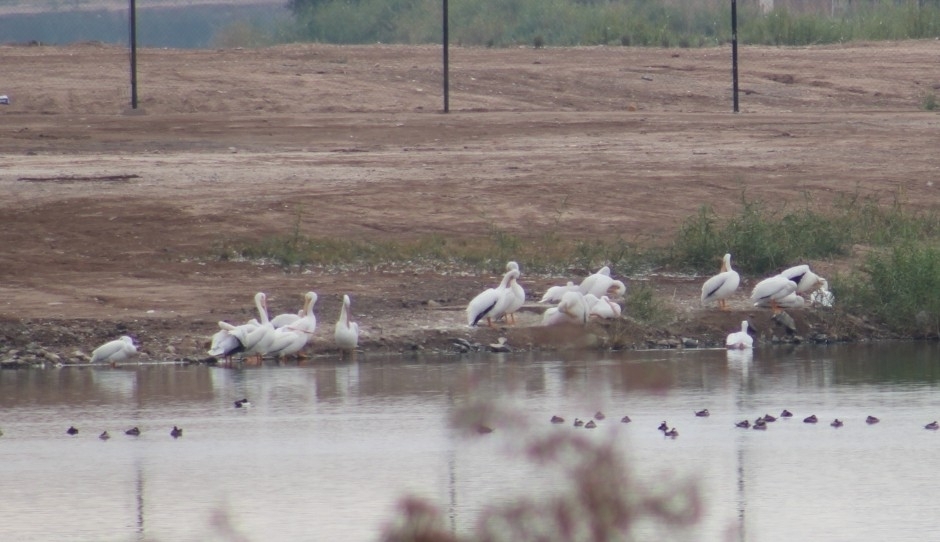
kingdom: Animalia
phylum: Chordata
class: Aves
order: Pelecaniformes
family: Pelecanidae
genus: Pelecanus
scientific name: Pelecanus erythrorhynchos
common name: American white pelican
